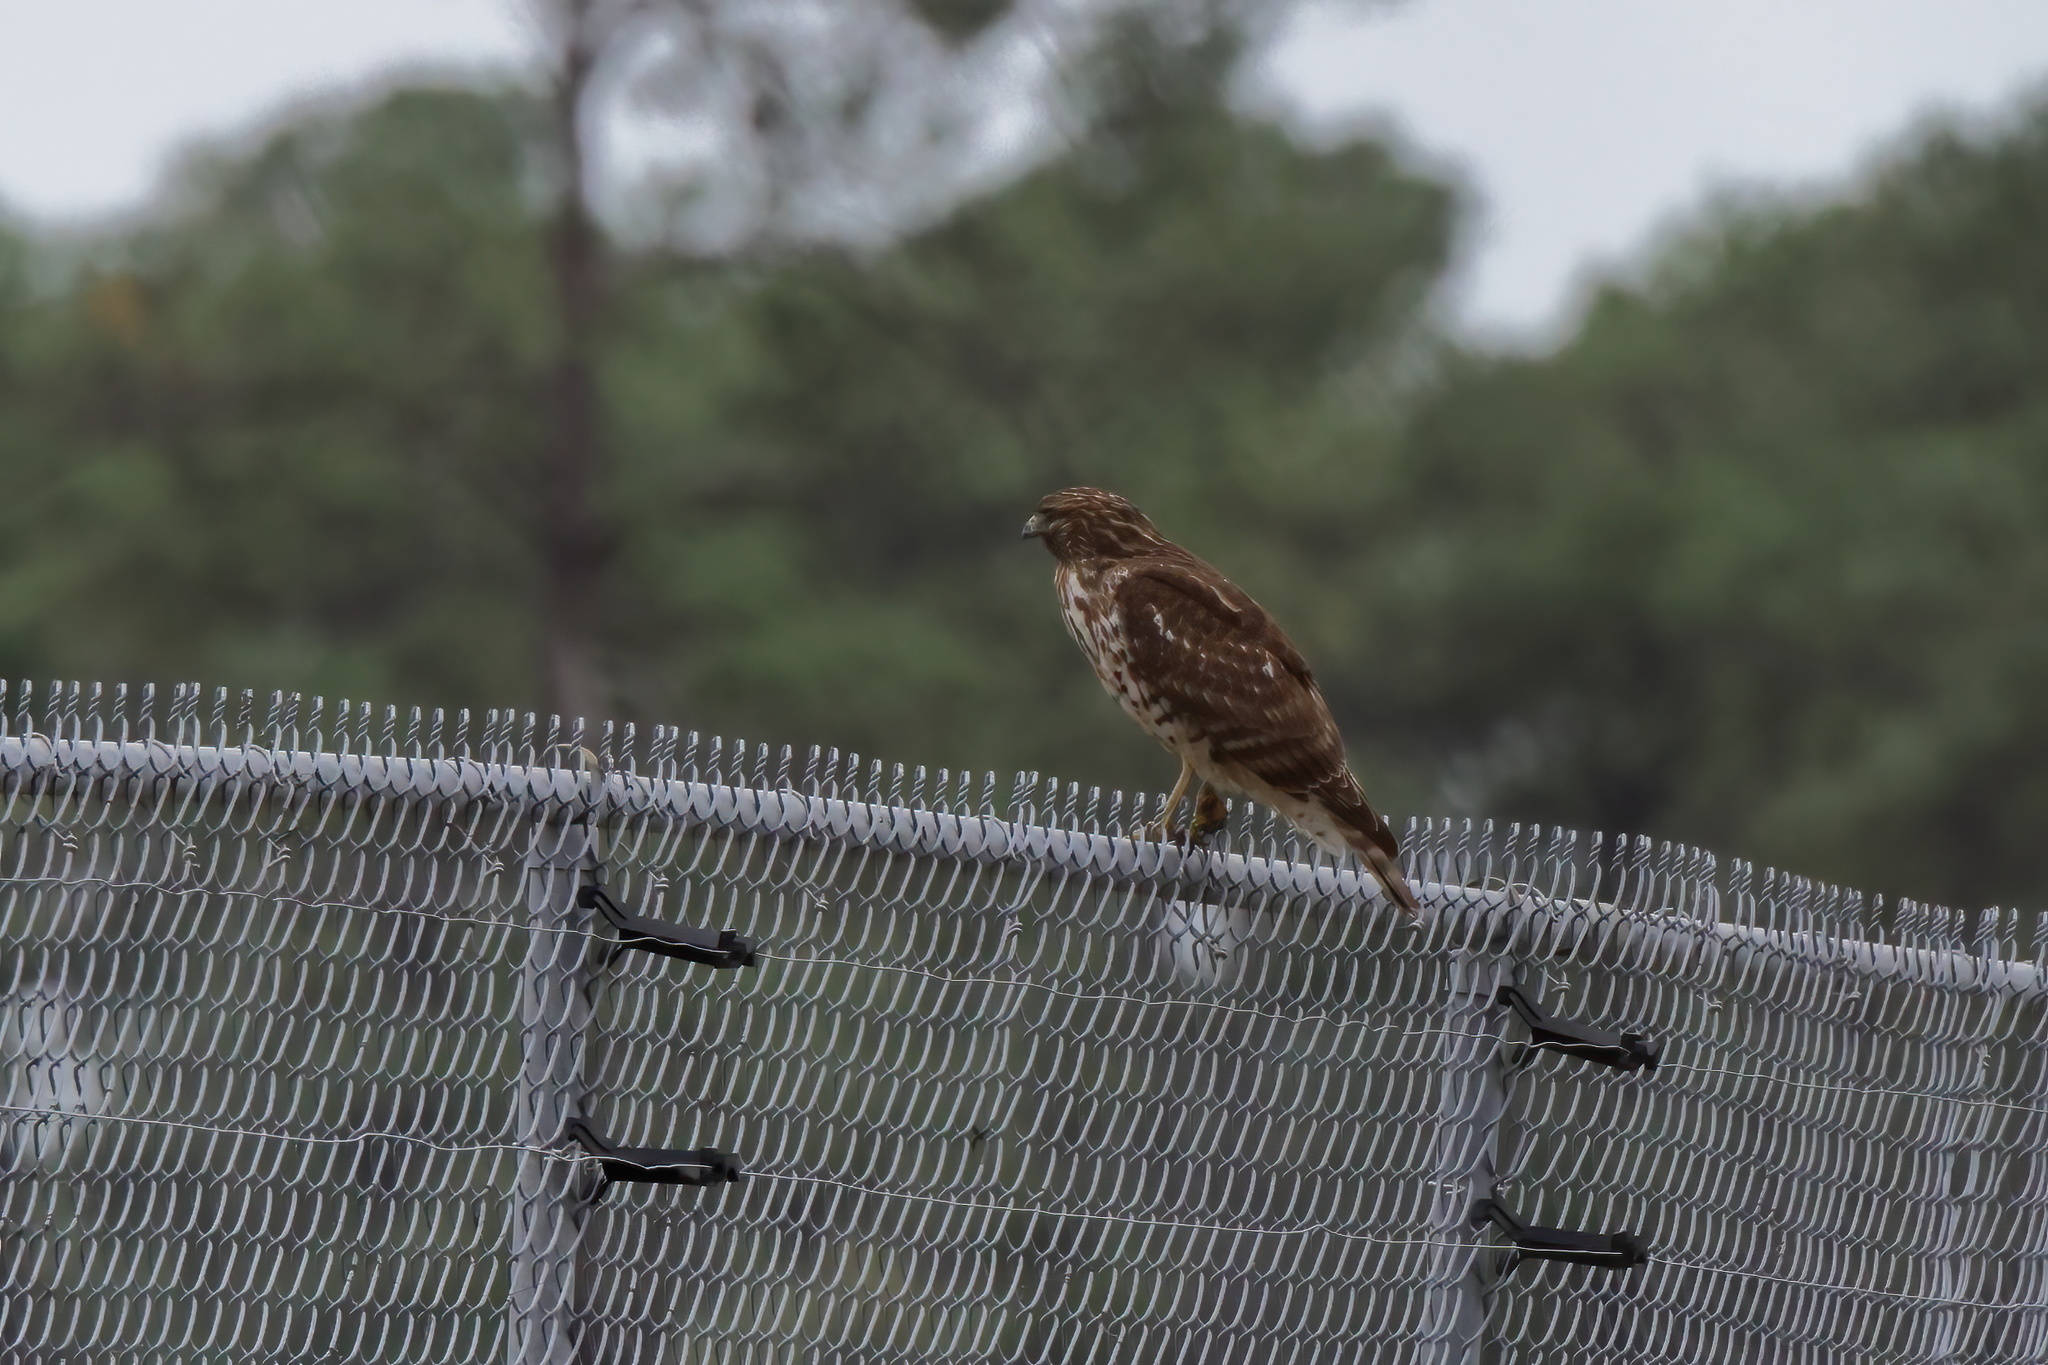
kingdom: Animalia
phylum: Chordata
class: Aves
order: Accipitriformes
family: Accipitridae
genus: Buteo
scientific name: Buteo lineatus
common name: Red-shouldered hawk
